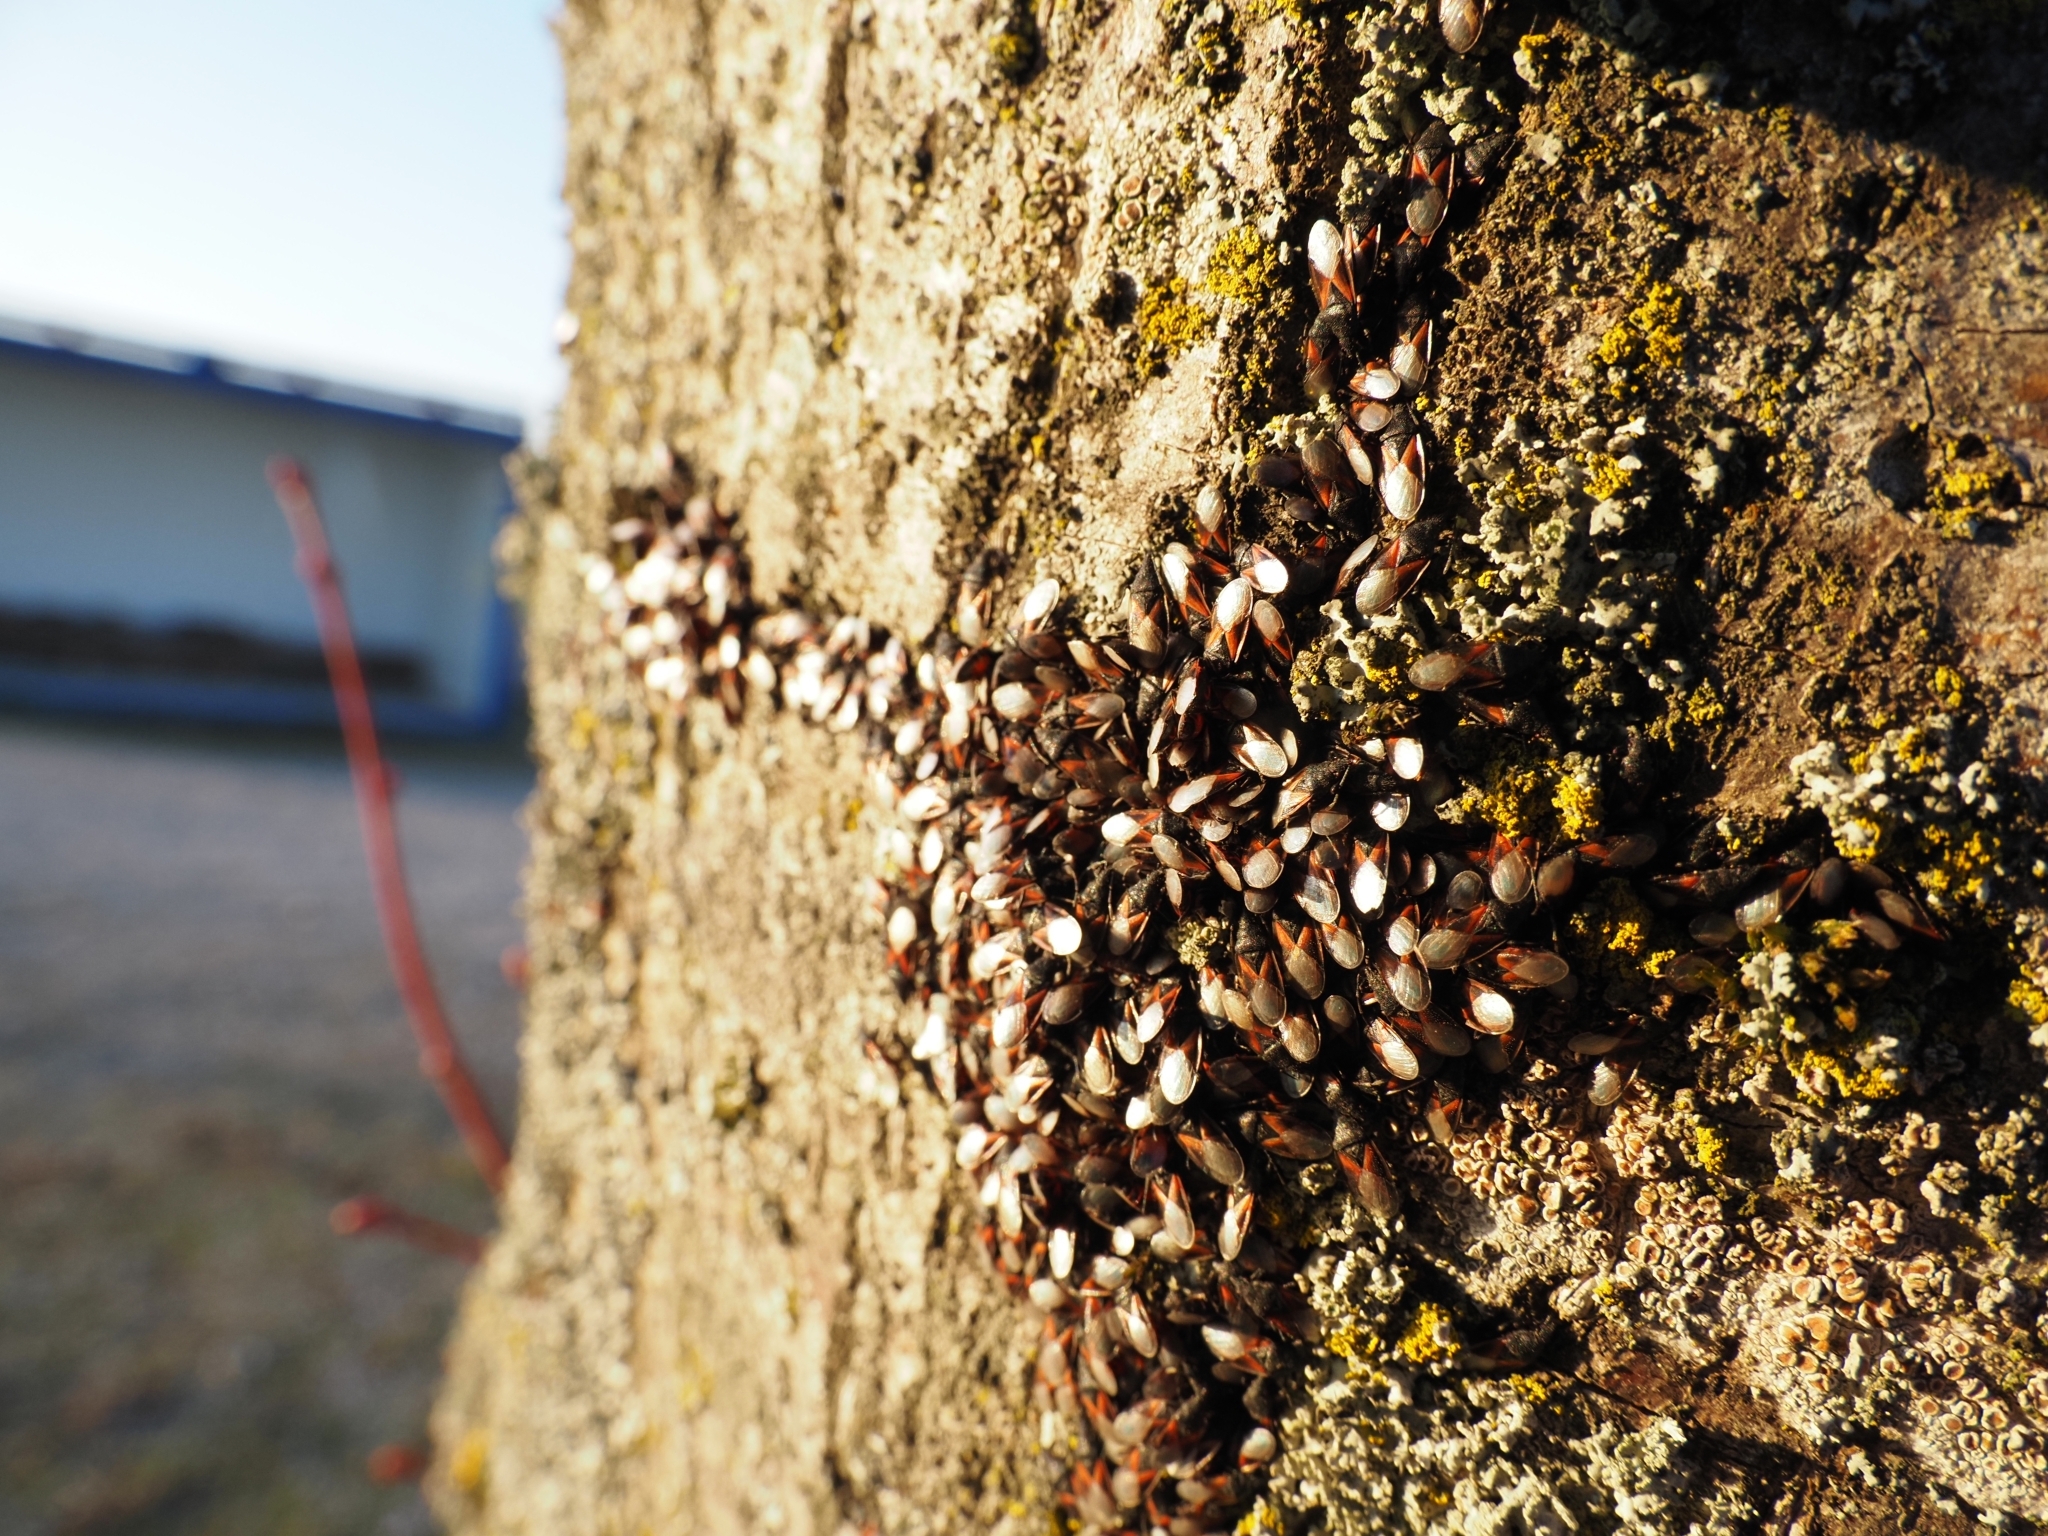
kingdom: Animalia
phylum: Arthropoda
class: Insecta
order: Hemiptera
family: Oxycarenidae
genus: Oxycarenus
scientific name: Oxycarenus lavaterae
